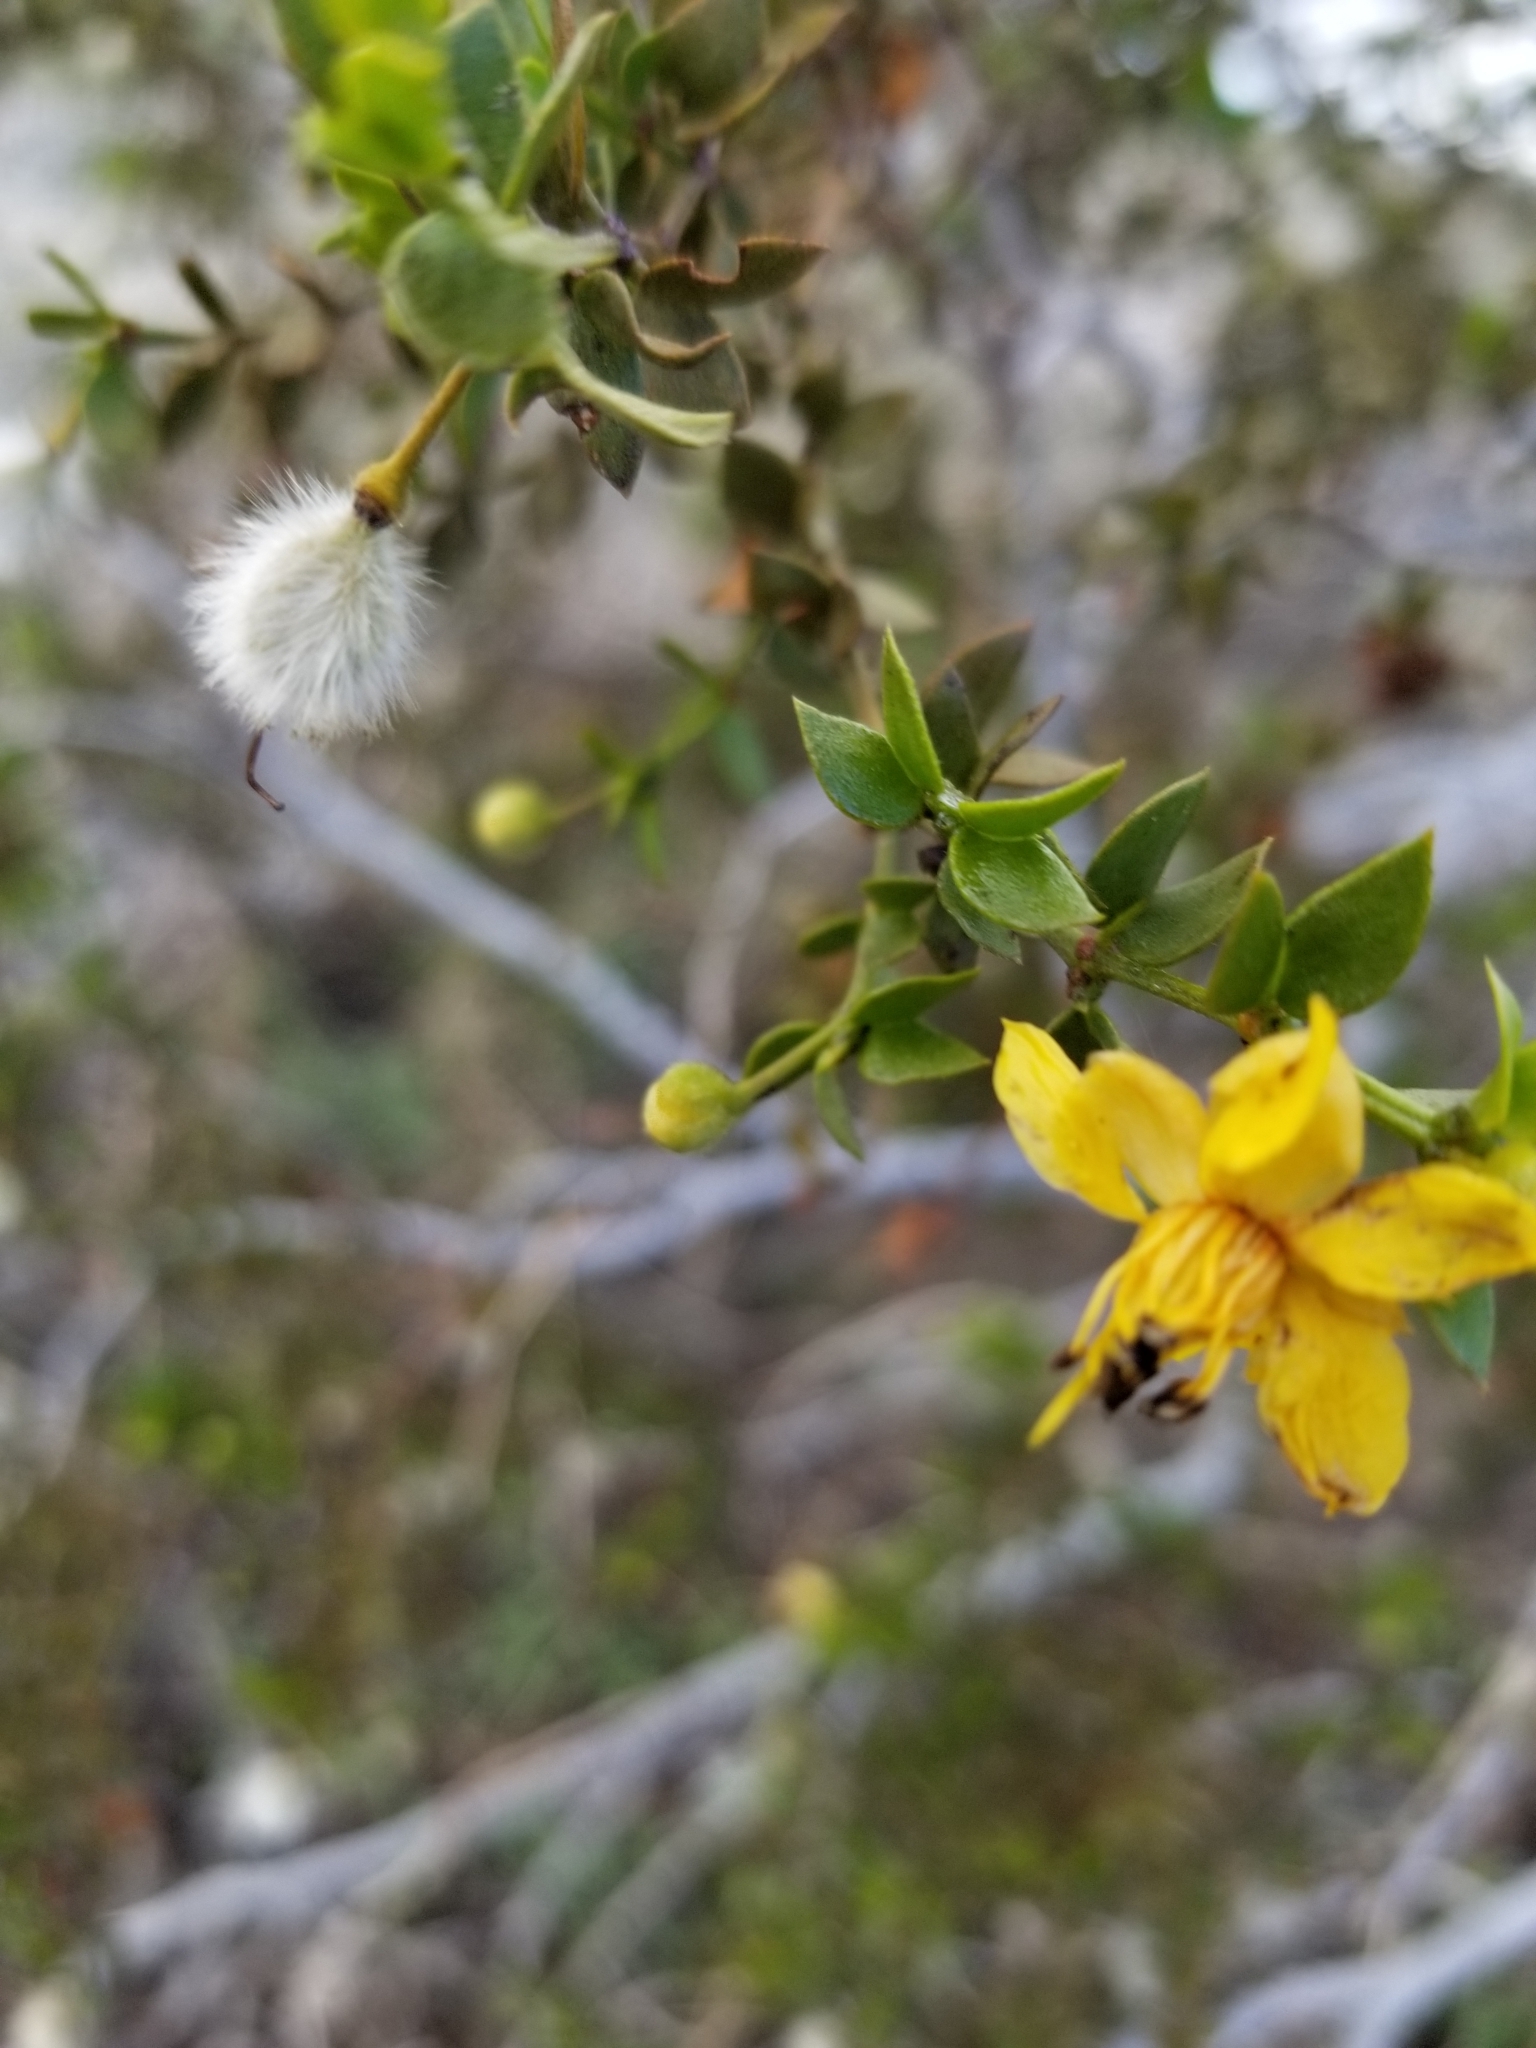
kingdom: Plantae
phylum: Tracheophyta
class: Magnoliopsida
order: Zygophyllales
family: Zygophyllaceae
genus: Larrea
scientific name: Larrea tridentata
